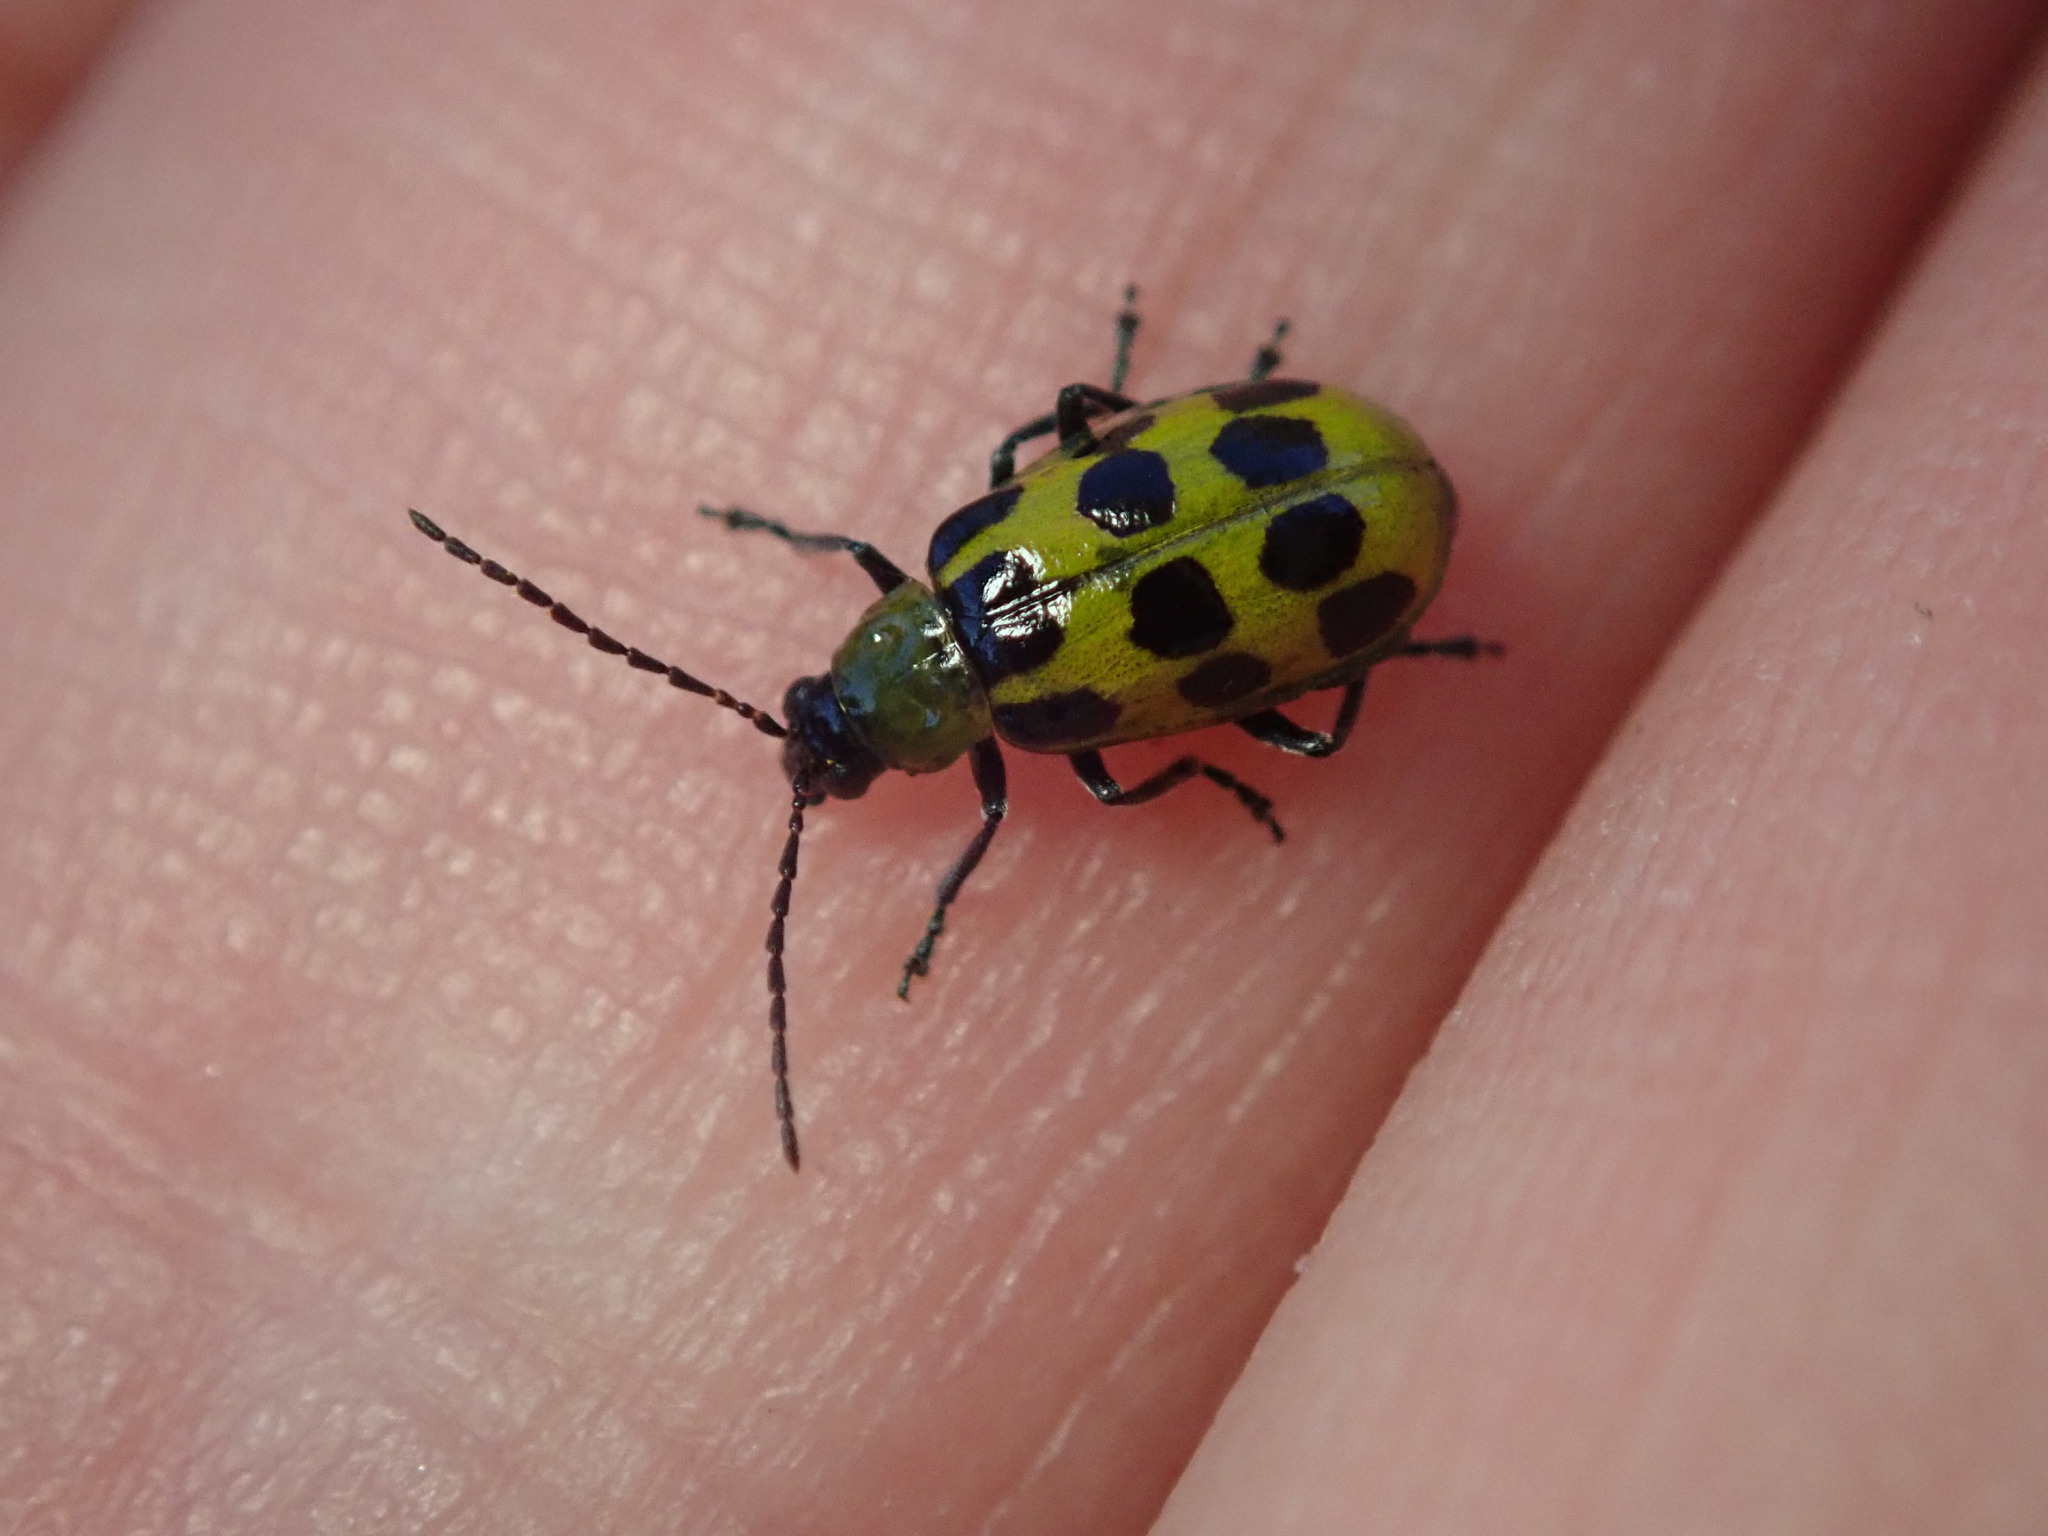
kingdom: Animalia
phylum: Arthropoda
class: Insecta
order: Coleoptera
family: Chrysomelidae
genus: Diabrotica
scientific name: Diabrotica undecimpunctata
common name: Spotted cucumber beetle
